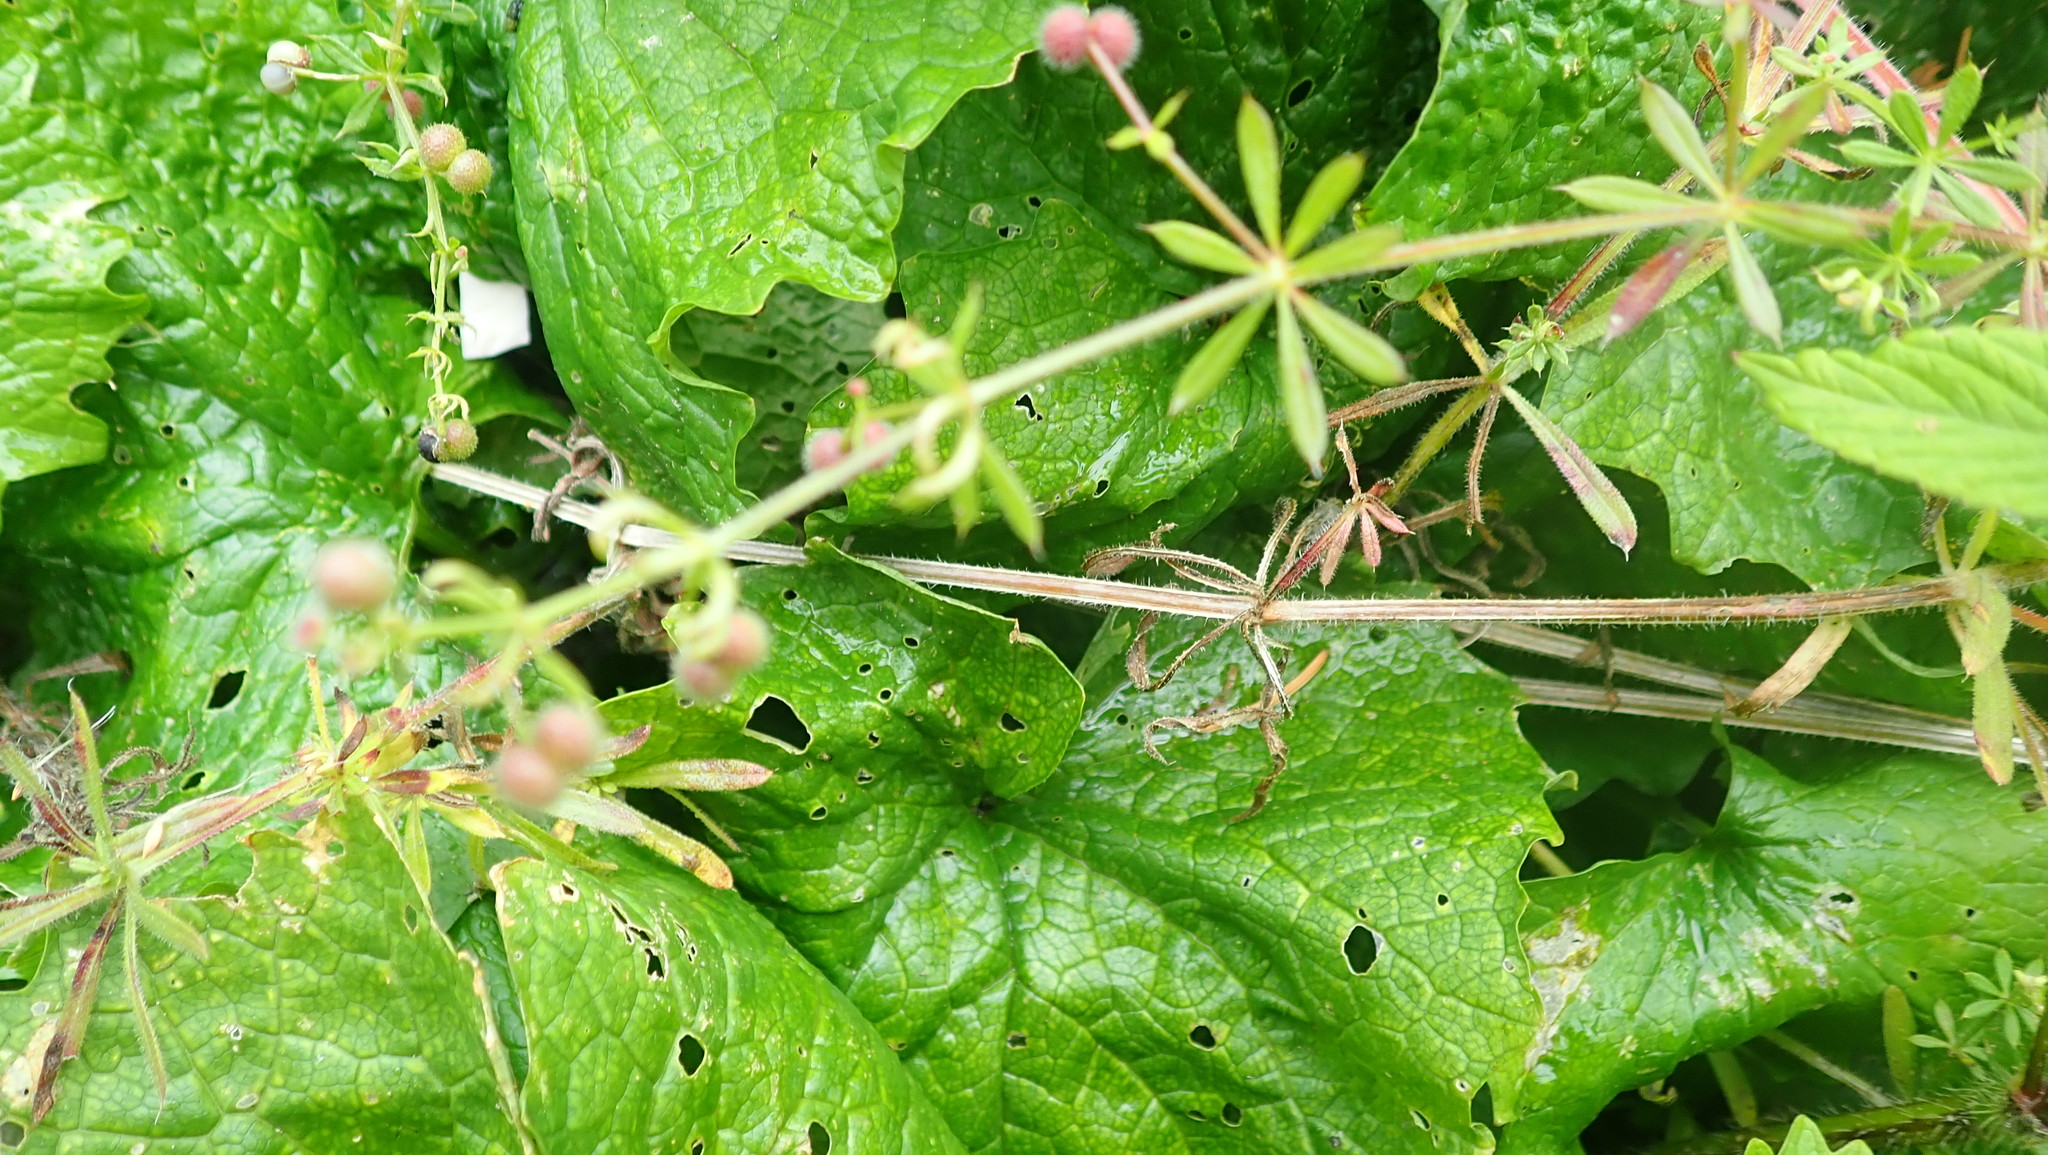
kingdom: Plantae
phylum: Tracheophyta
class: Magnoliopsida
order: Gentianales
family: Rubiaceae
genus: Galium
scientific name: Galium aparine
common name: Cleavers
